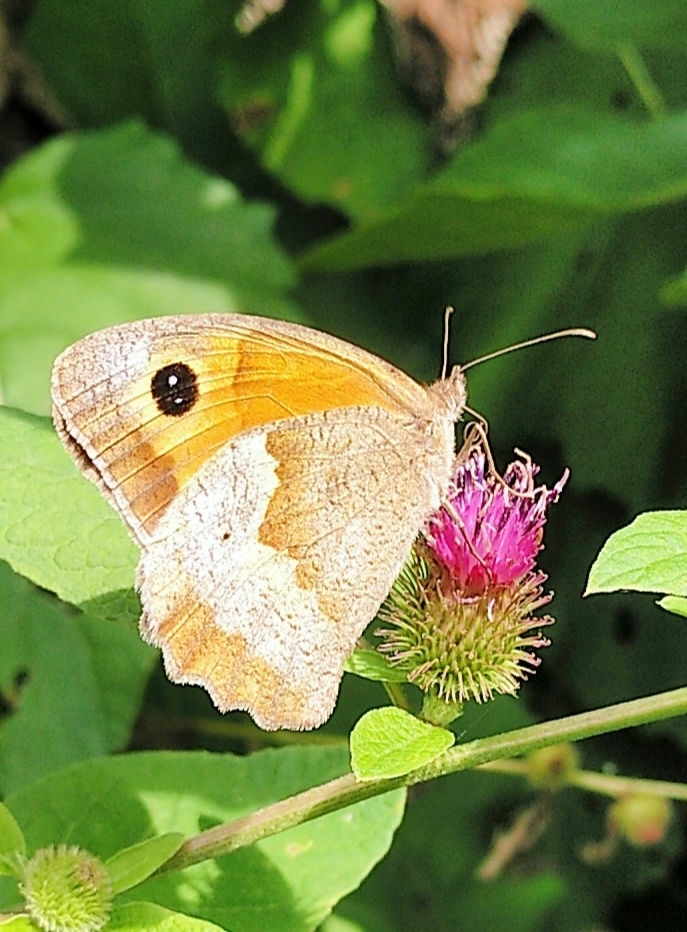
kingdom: Animalia
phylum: Arthropoda
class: Insecta
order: Lepidoptera
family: Nymphalidae
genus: Pyronia
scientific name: Pyronia tithonus
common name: Gatekeeper
